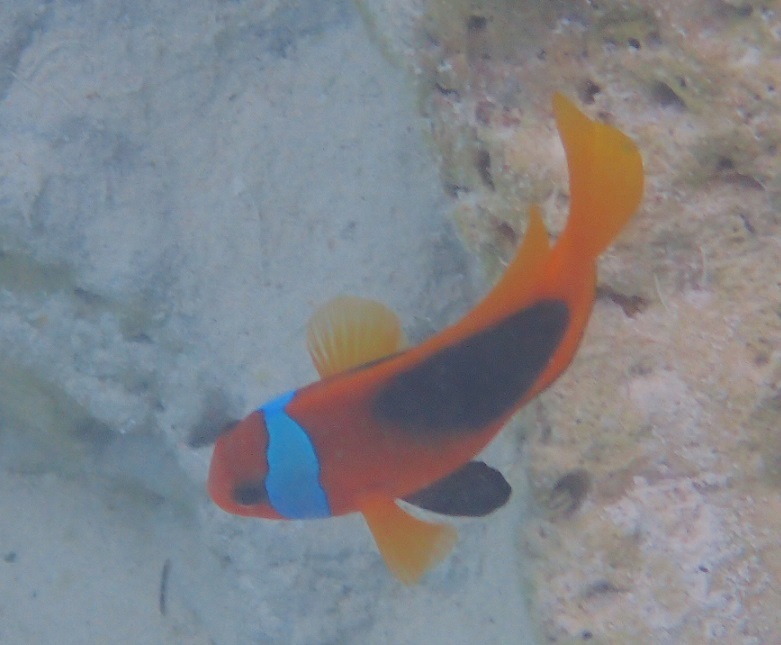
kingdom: Animalia
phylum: Chordata
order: Perciformes
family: Pomacentridae
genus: Amphiprion
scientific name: Amphiprion melanopus
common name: Black anemonefish
